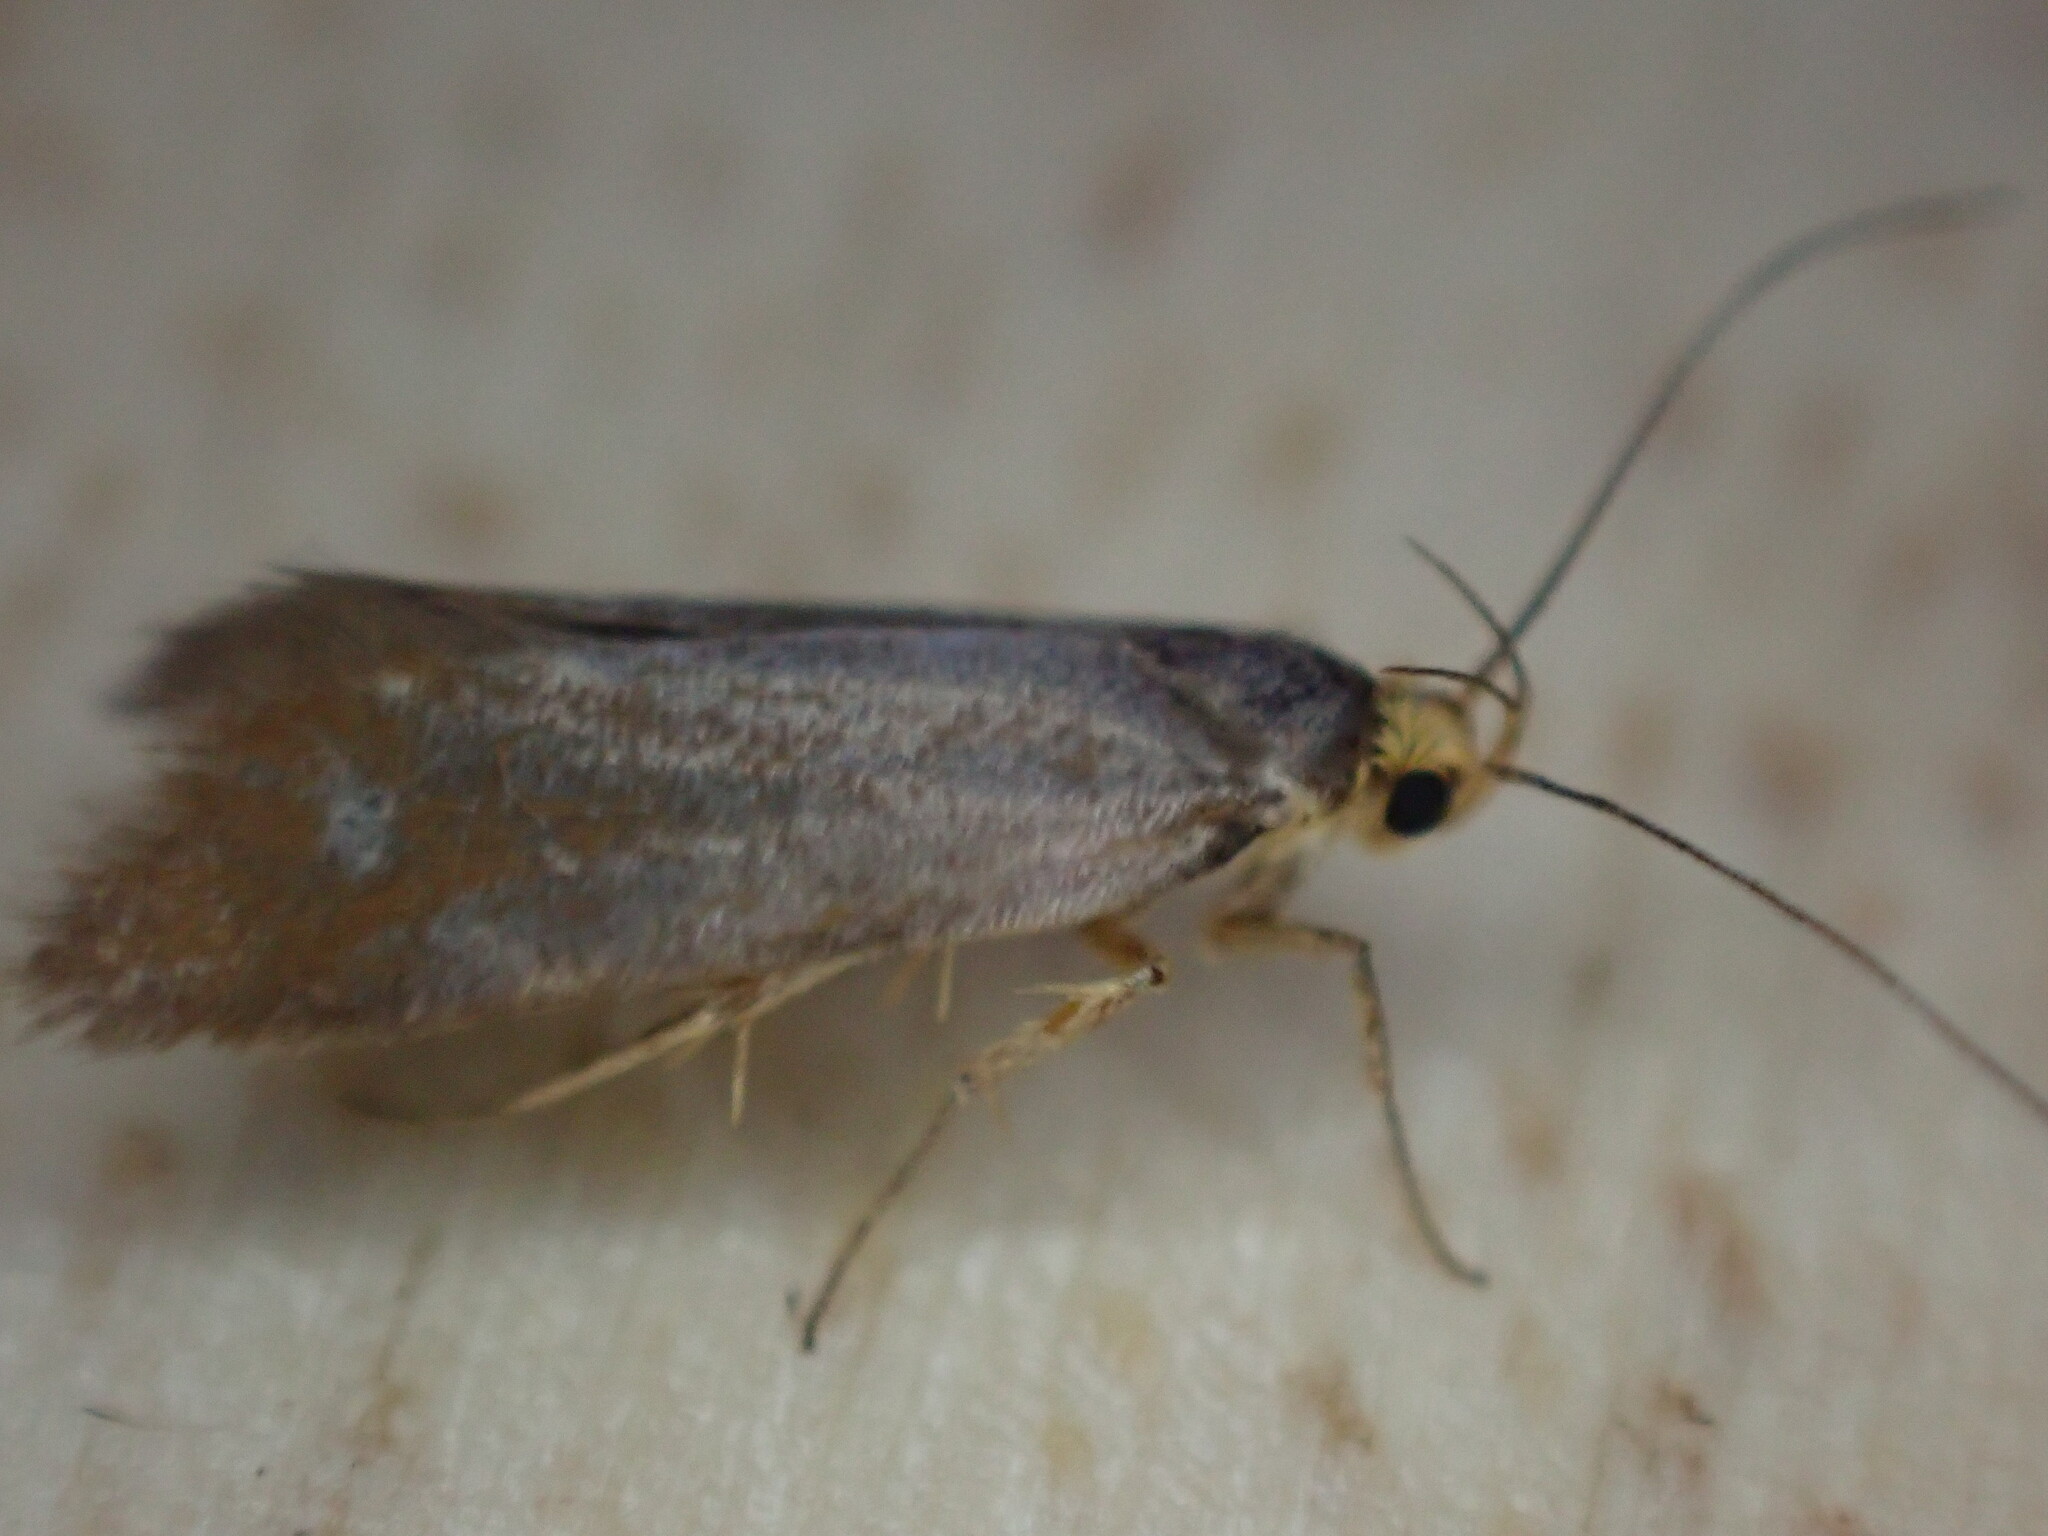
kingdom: Animalia
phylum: Arthropoda
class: Insecta
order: Lepidoptera
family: Oecophoridae
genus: Borkhausenia
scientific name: Borkhausenia Crassa unitella
